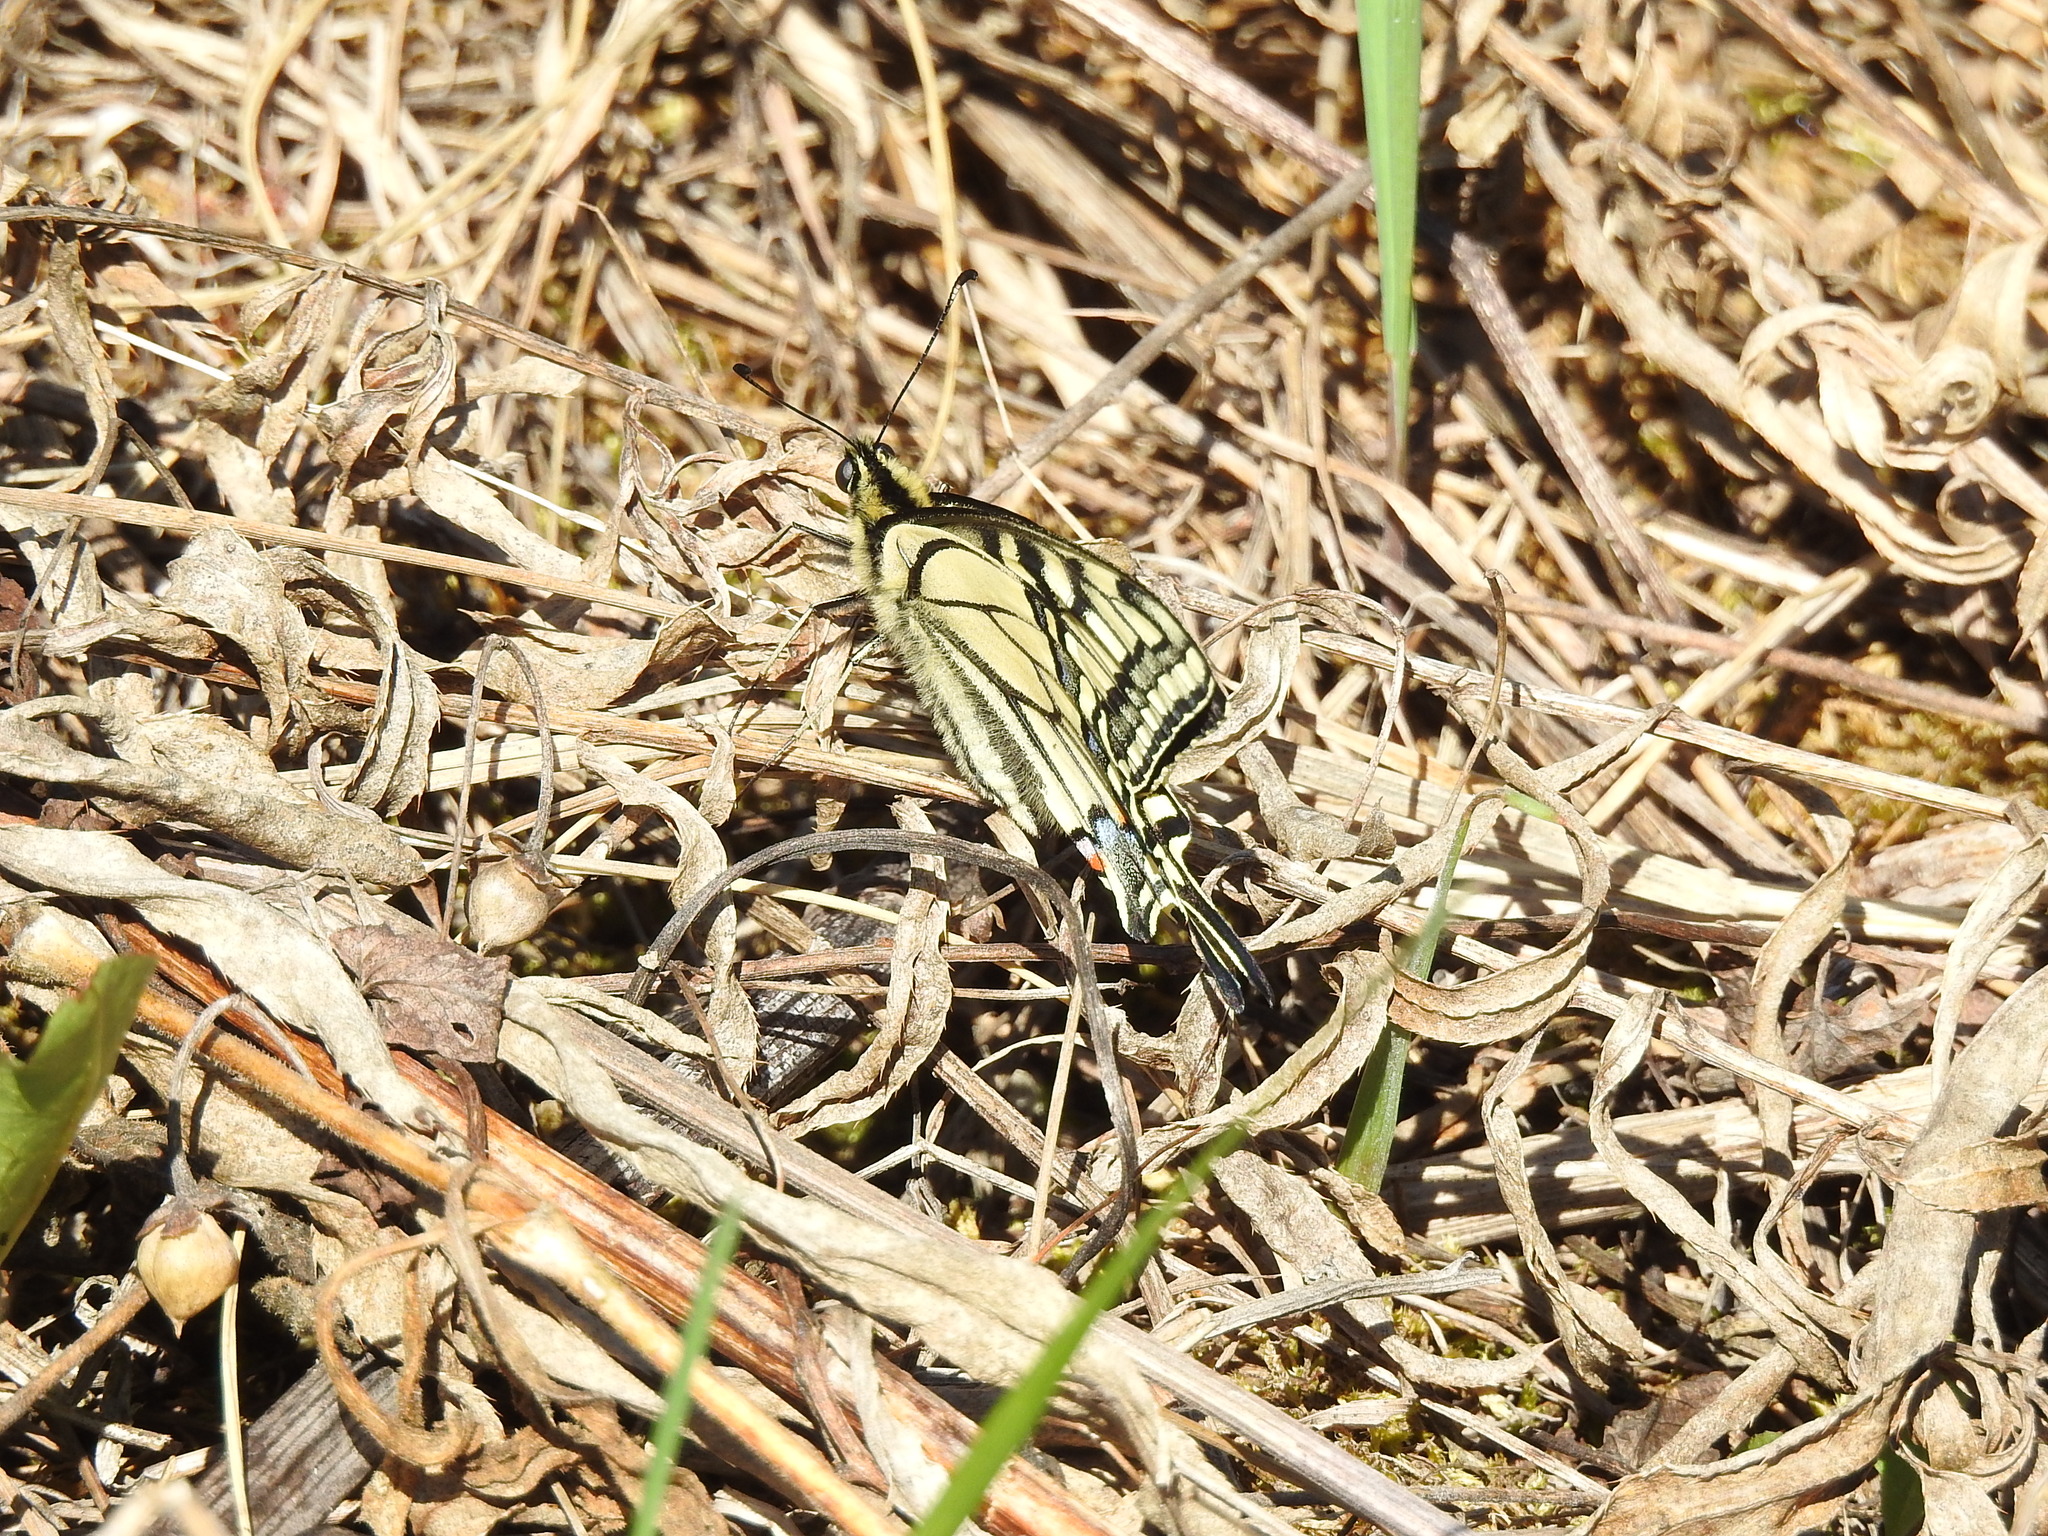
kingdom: Animalia
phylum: Arthropoda
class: Insecta
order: Lepidoptera
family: Papilionidae
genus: Papilio
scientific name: Papilio machaon
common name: Swallowtail
